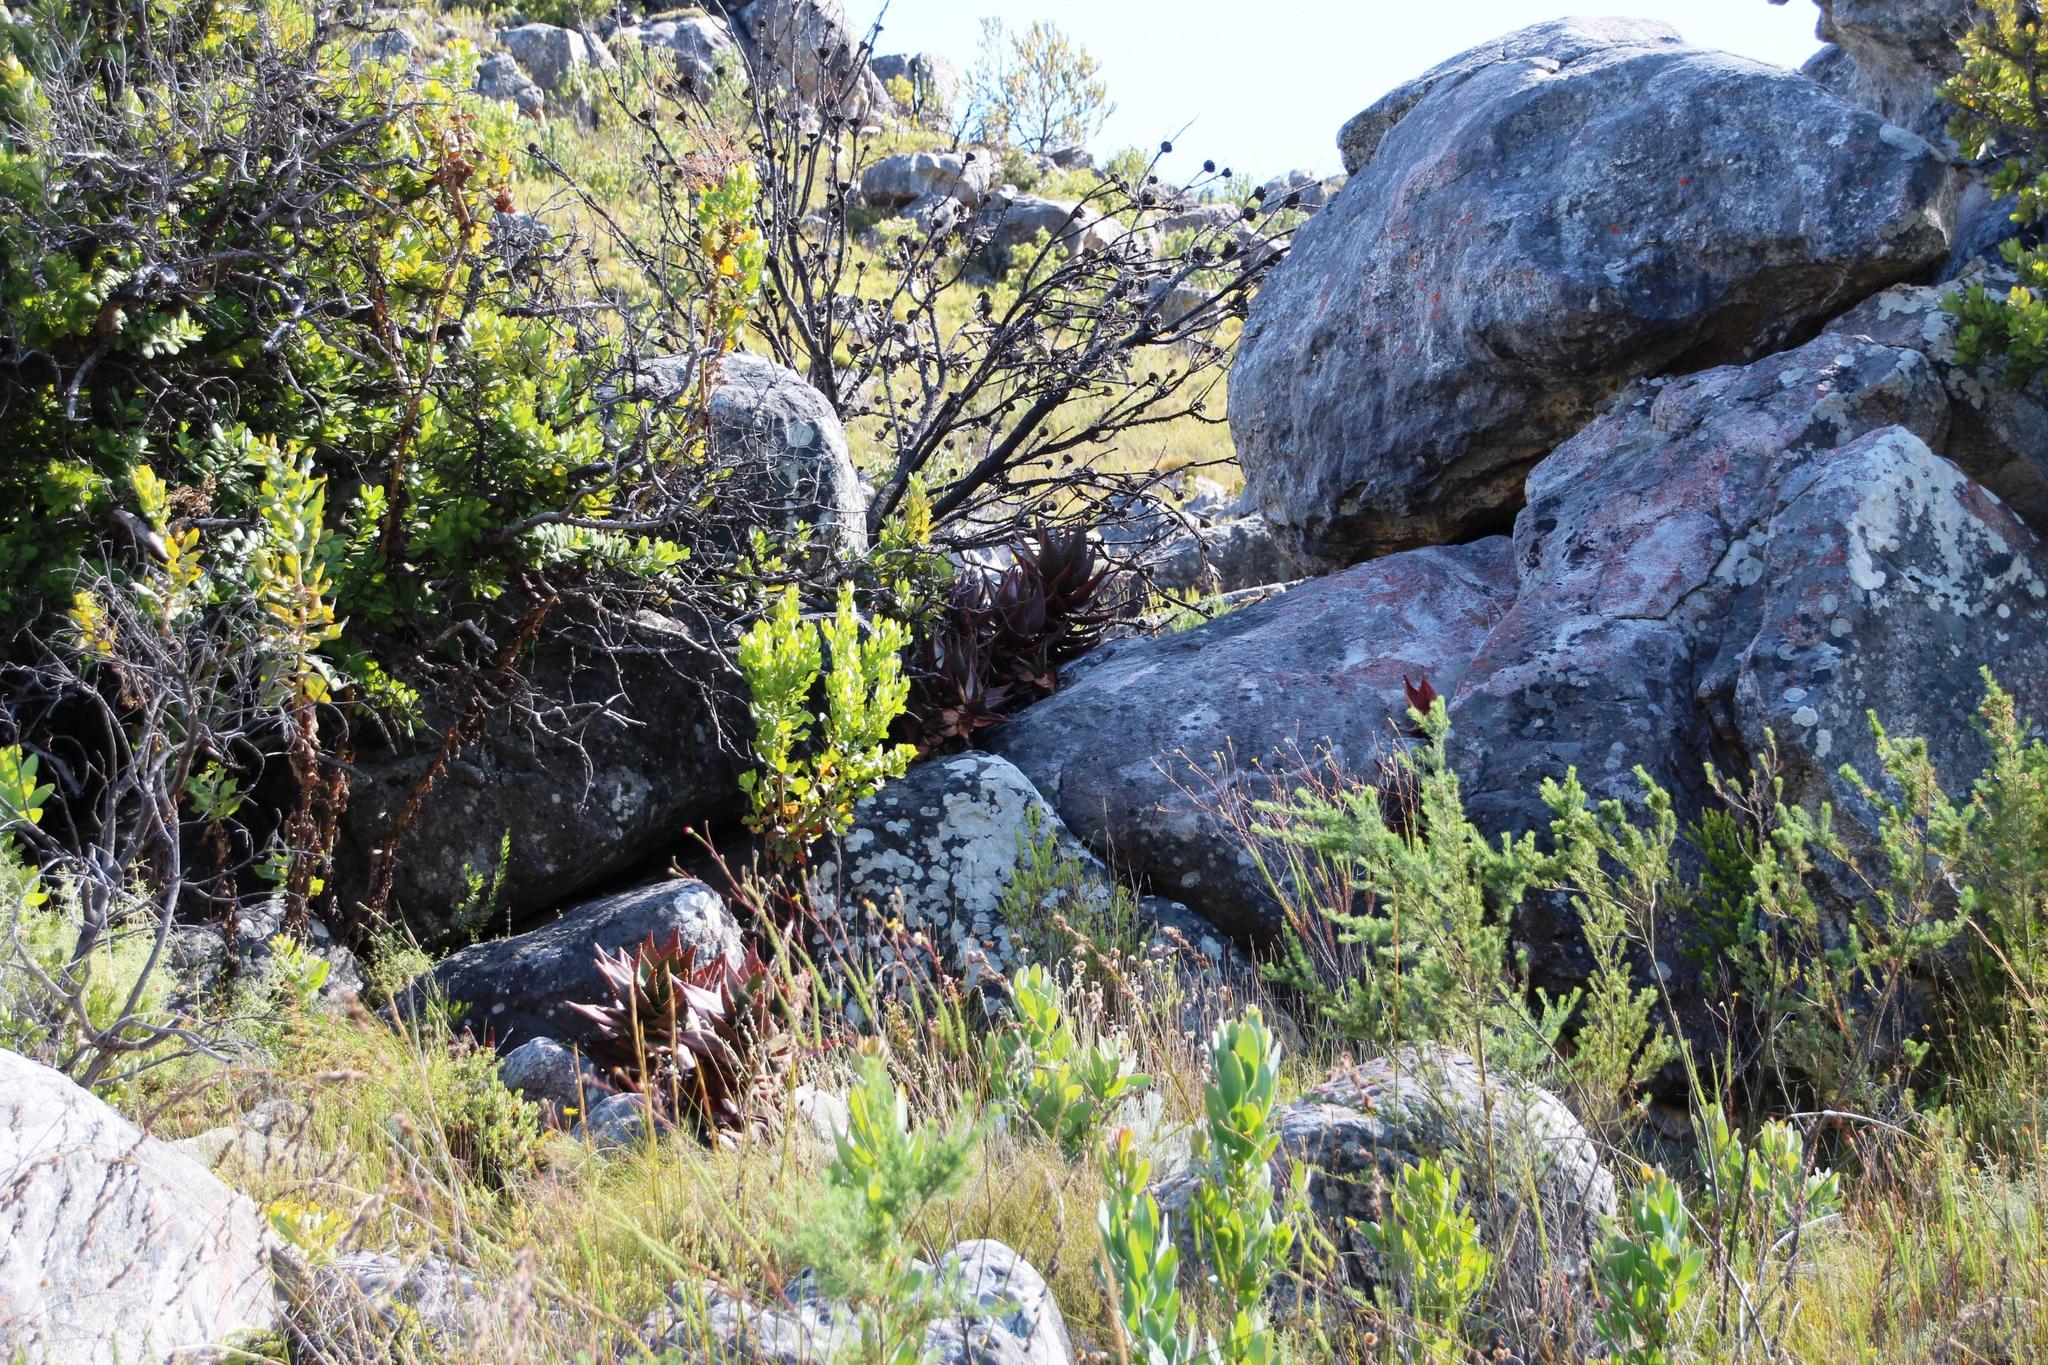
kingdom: Plantae
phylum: Tracheophyta
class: Liliopsida
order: Asparagales
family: Asphodelaceae
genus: Aloe
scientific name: Aloe perfoliata
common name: Mitra aloe
